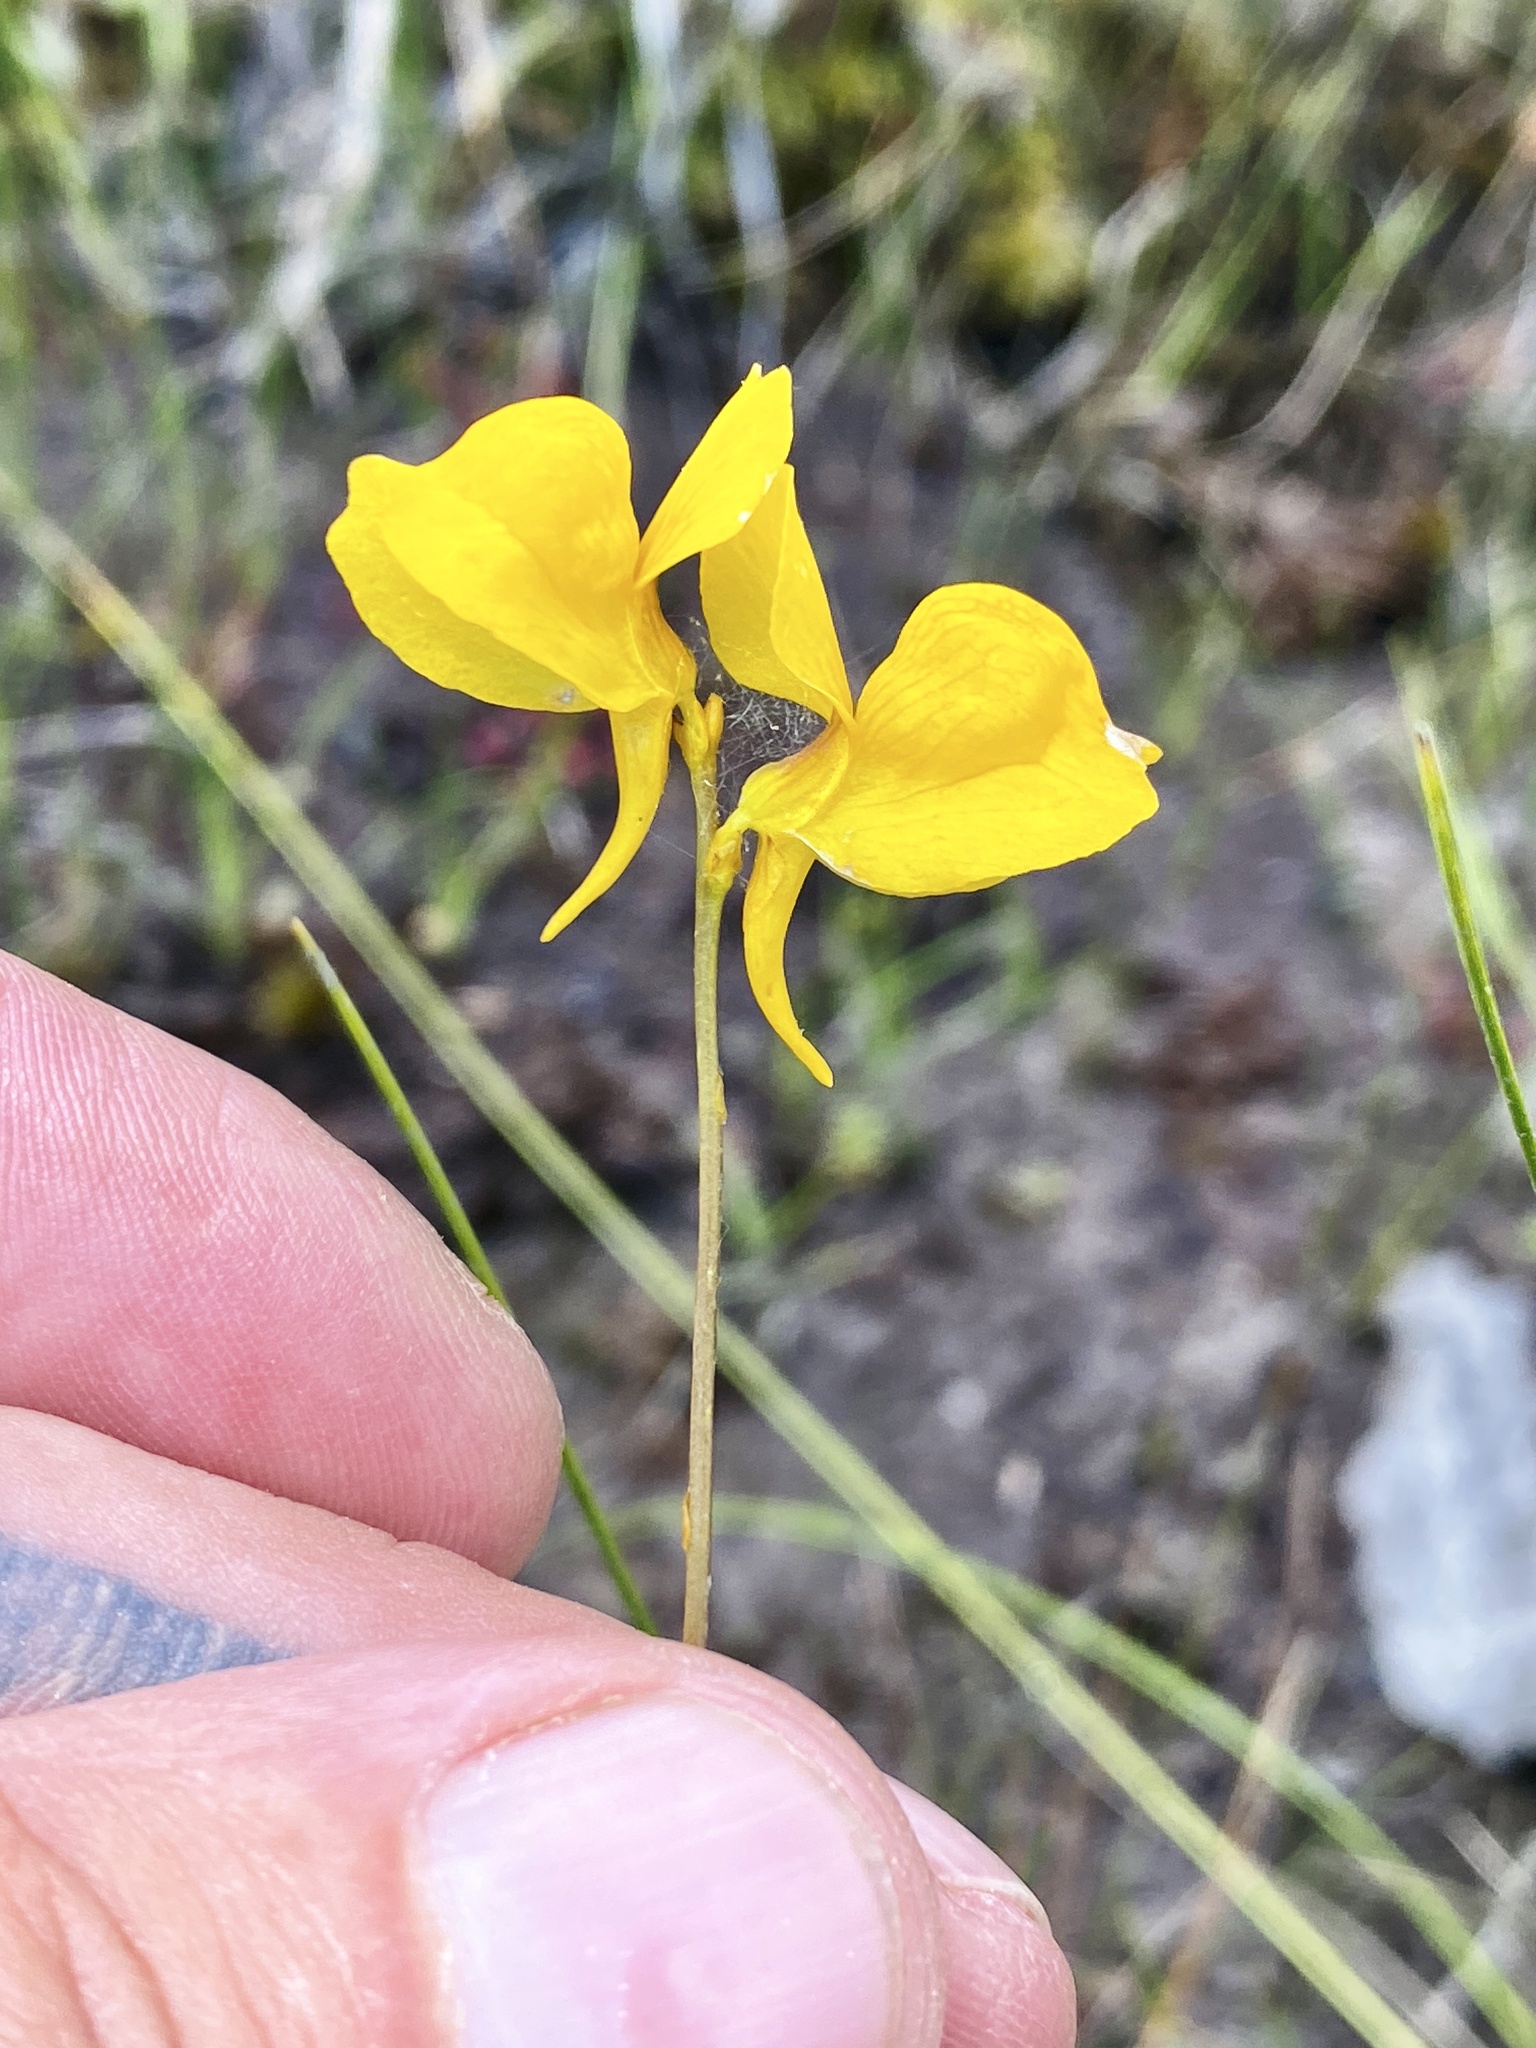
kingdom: Plantae
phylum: Tracheophyta
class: Magnoliopsida
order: Lamiales
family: Lentibulariaceae
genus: Utricularia
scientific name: Utricularia cornuta
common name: Horned bladderwort
